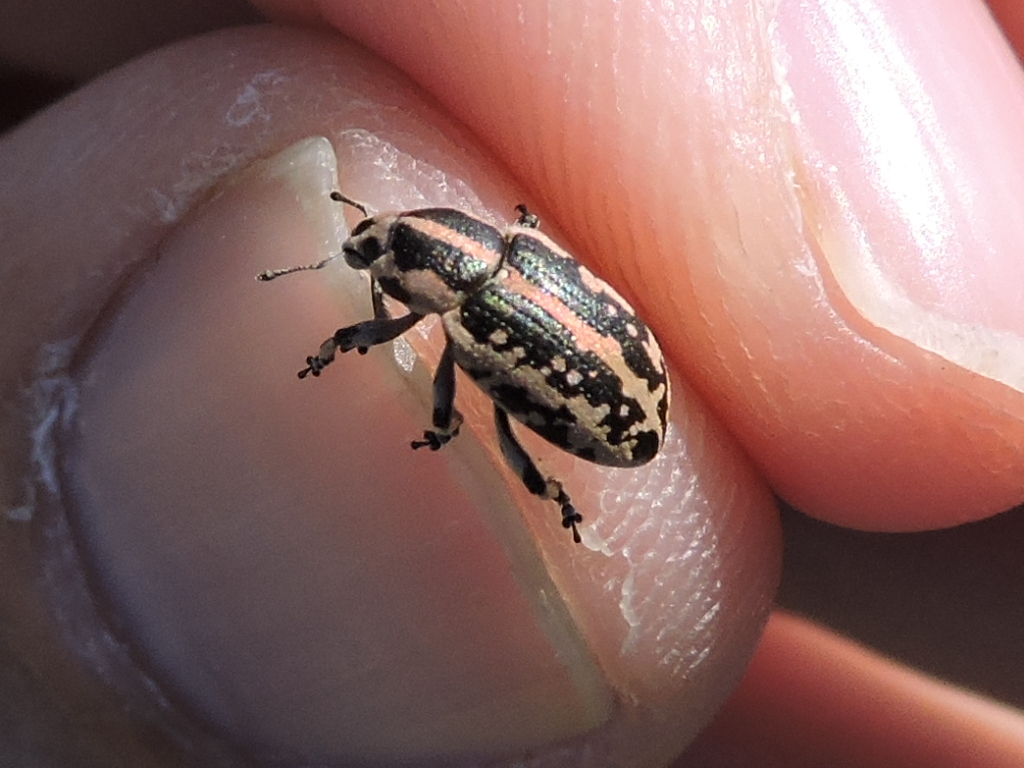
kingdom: Animalia
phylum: Arthropoda
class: Insecta
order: Coleoptera
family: Curculionidae
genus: Eudiagogus
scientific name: Eudiagogus rosenschoeldi
